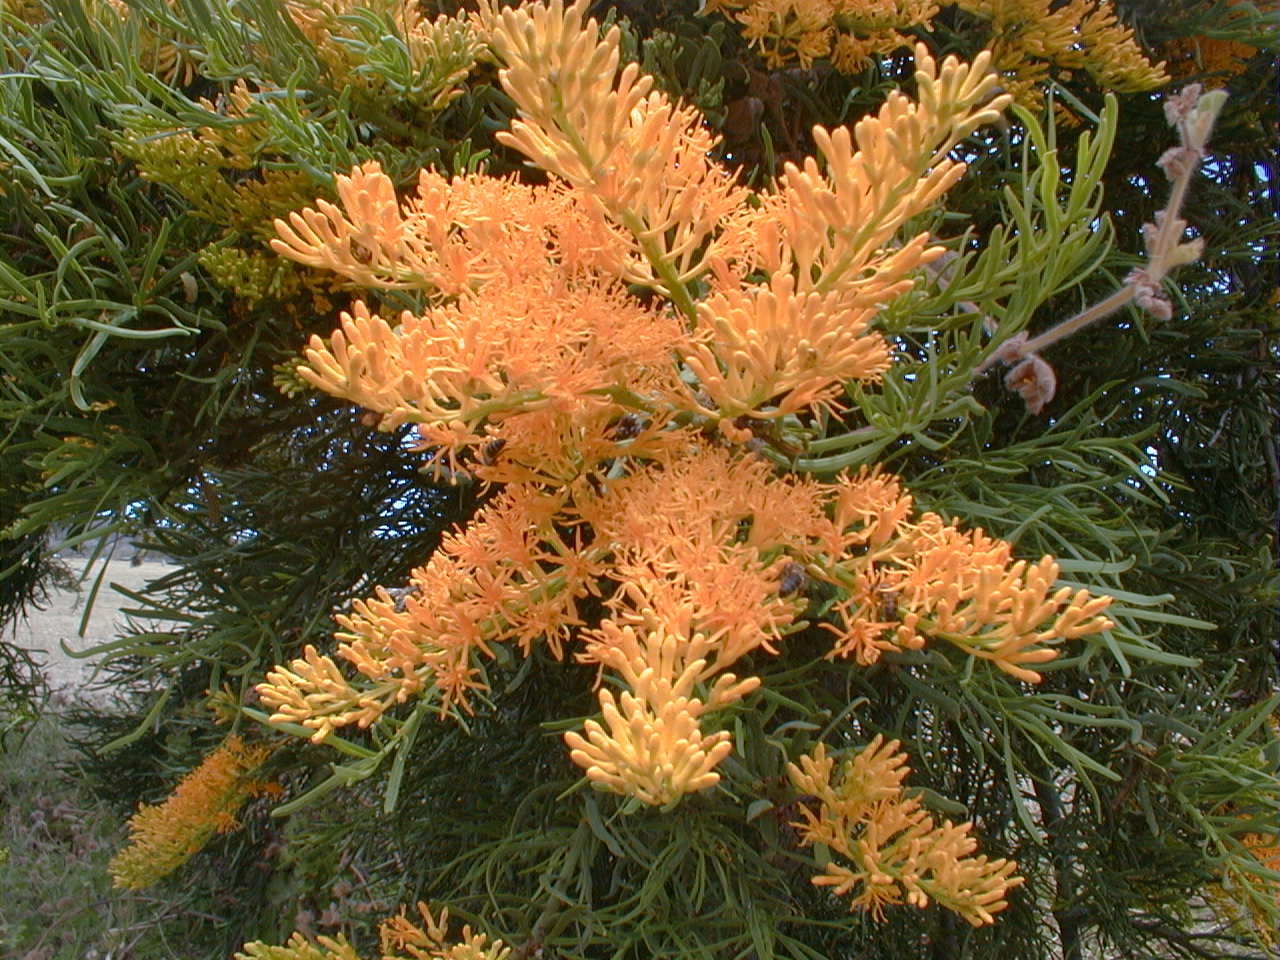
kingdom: Plantae
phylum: Tracheophyta
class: Magnoliopsida
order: Santalales
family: Loranthaceae
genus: Nuytsia
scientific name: Nuytsia floribunda
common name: Western australian christmastree
